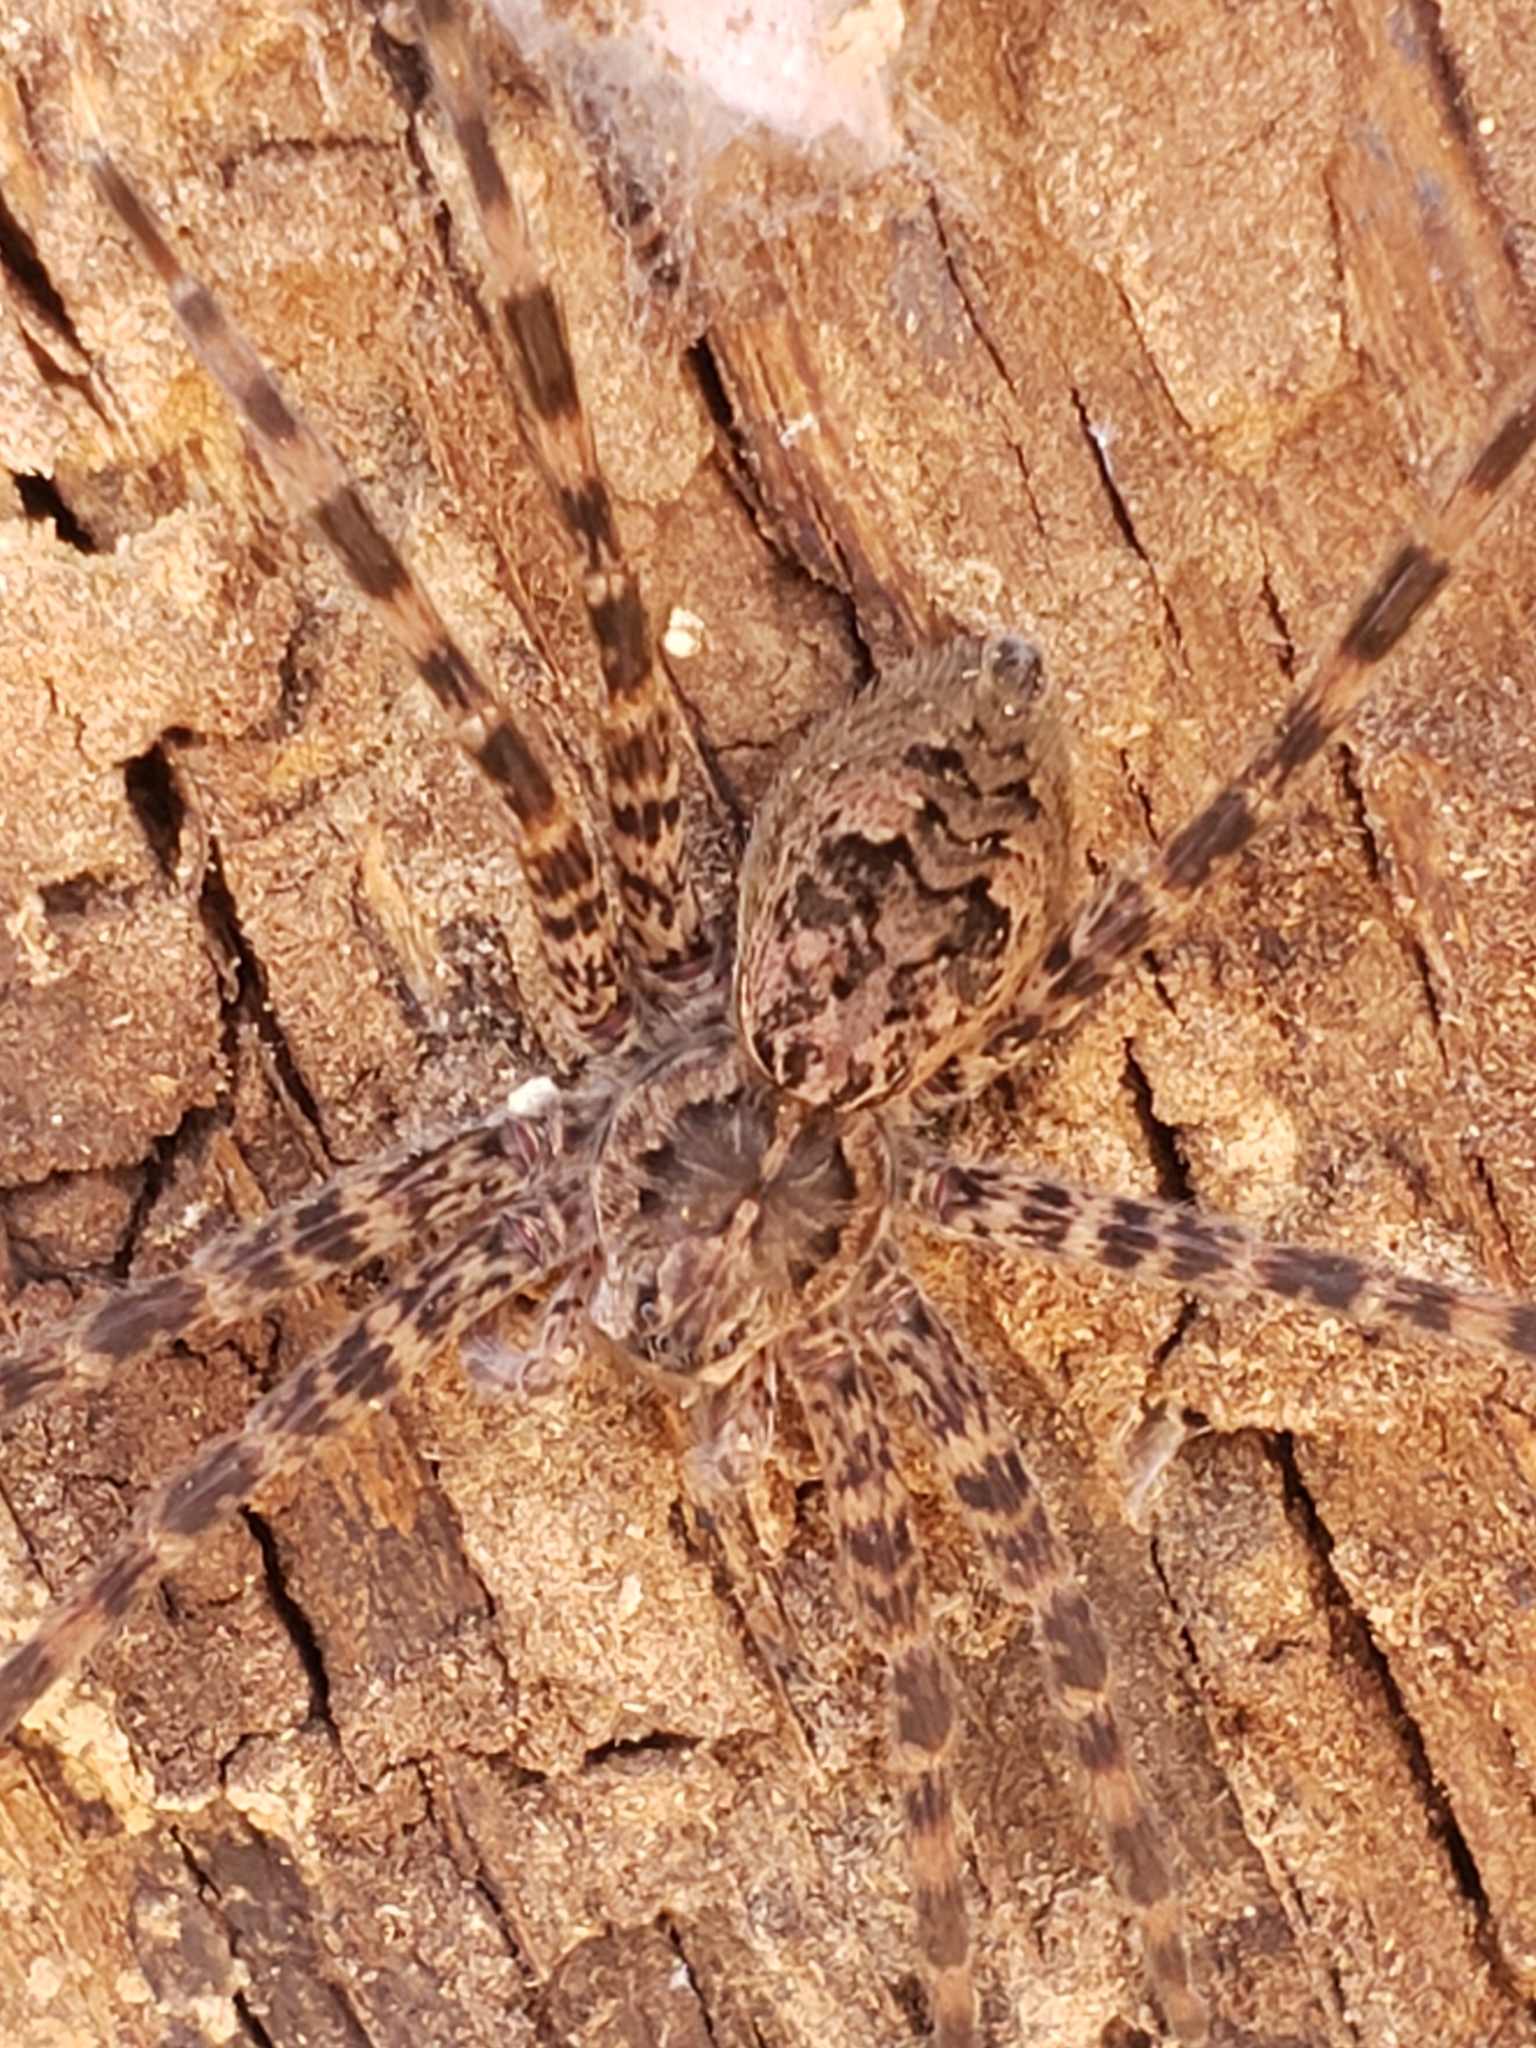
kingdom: Animalia
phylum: Arthropoda
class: Arachnida
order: Araneae
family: Pisauridae
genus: Dolomedes
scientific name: Dolomedes tenebrosus
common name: Dark fishing spider
